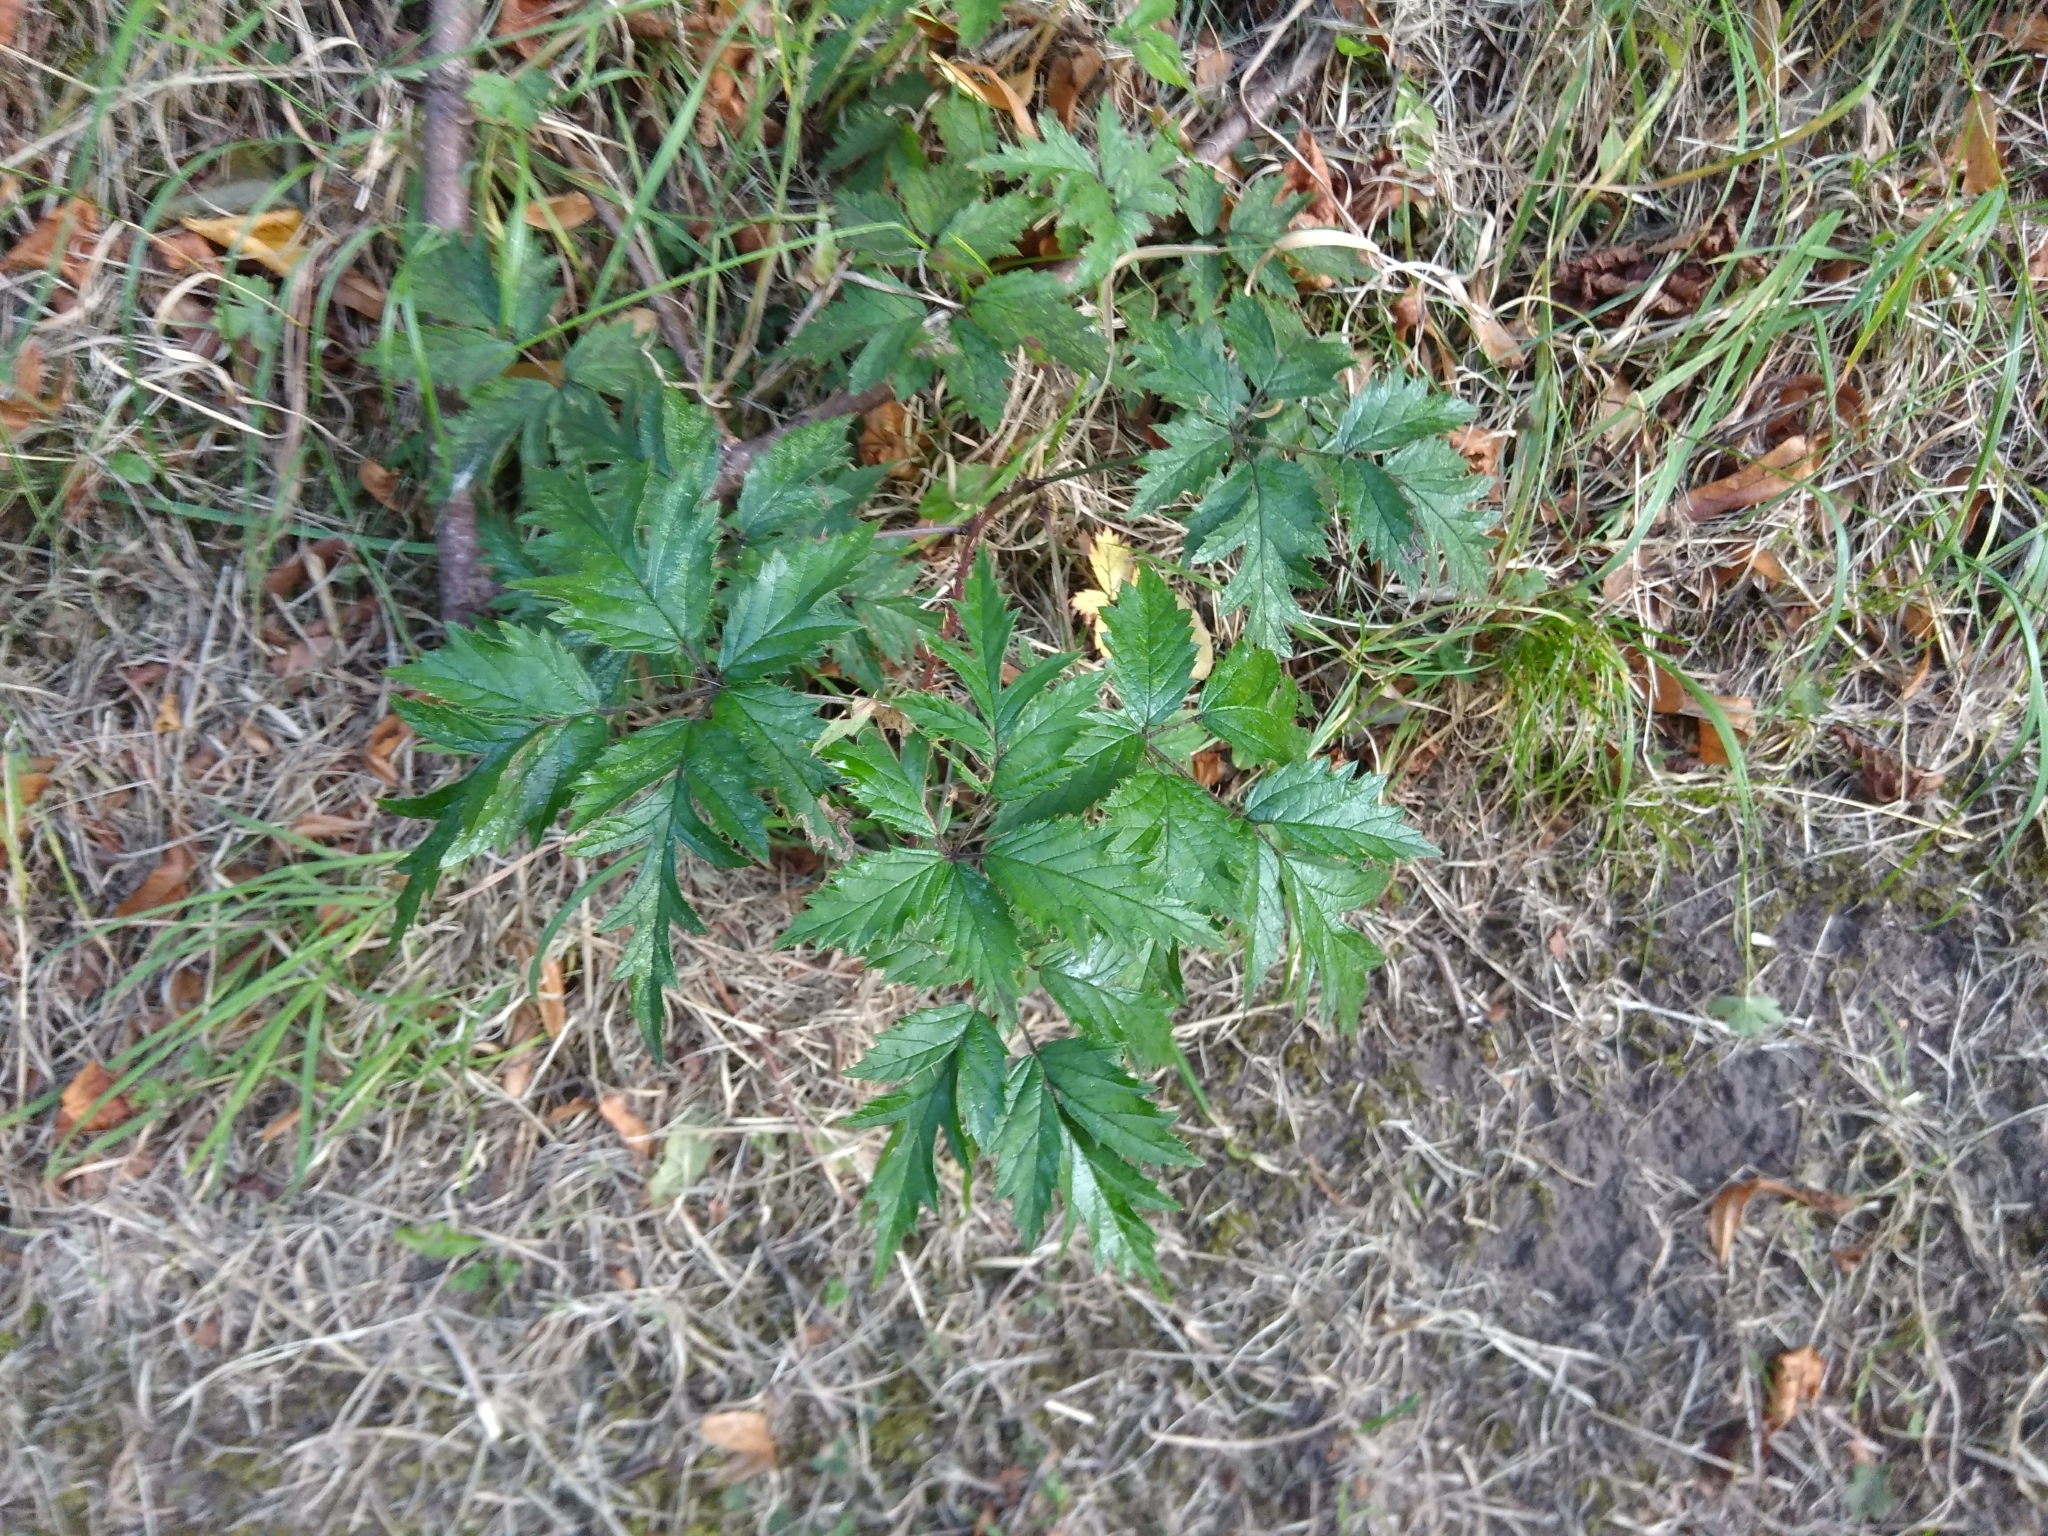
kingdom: Plantae
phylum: Tracheophyta
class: Magnoliopsida
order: Rosales
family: Rosaceae
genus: Rubus
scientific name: Rubus laciniatus
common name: Evergreen blackberry
